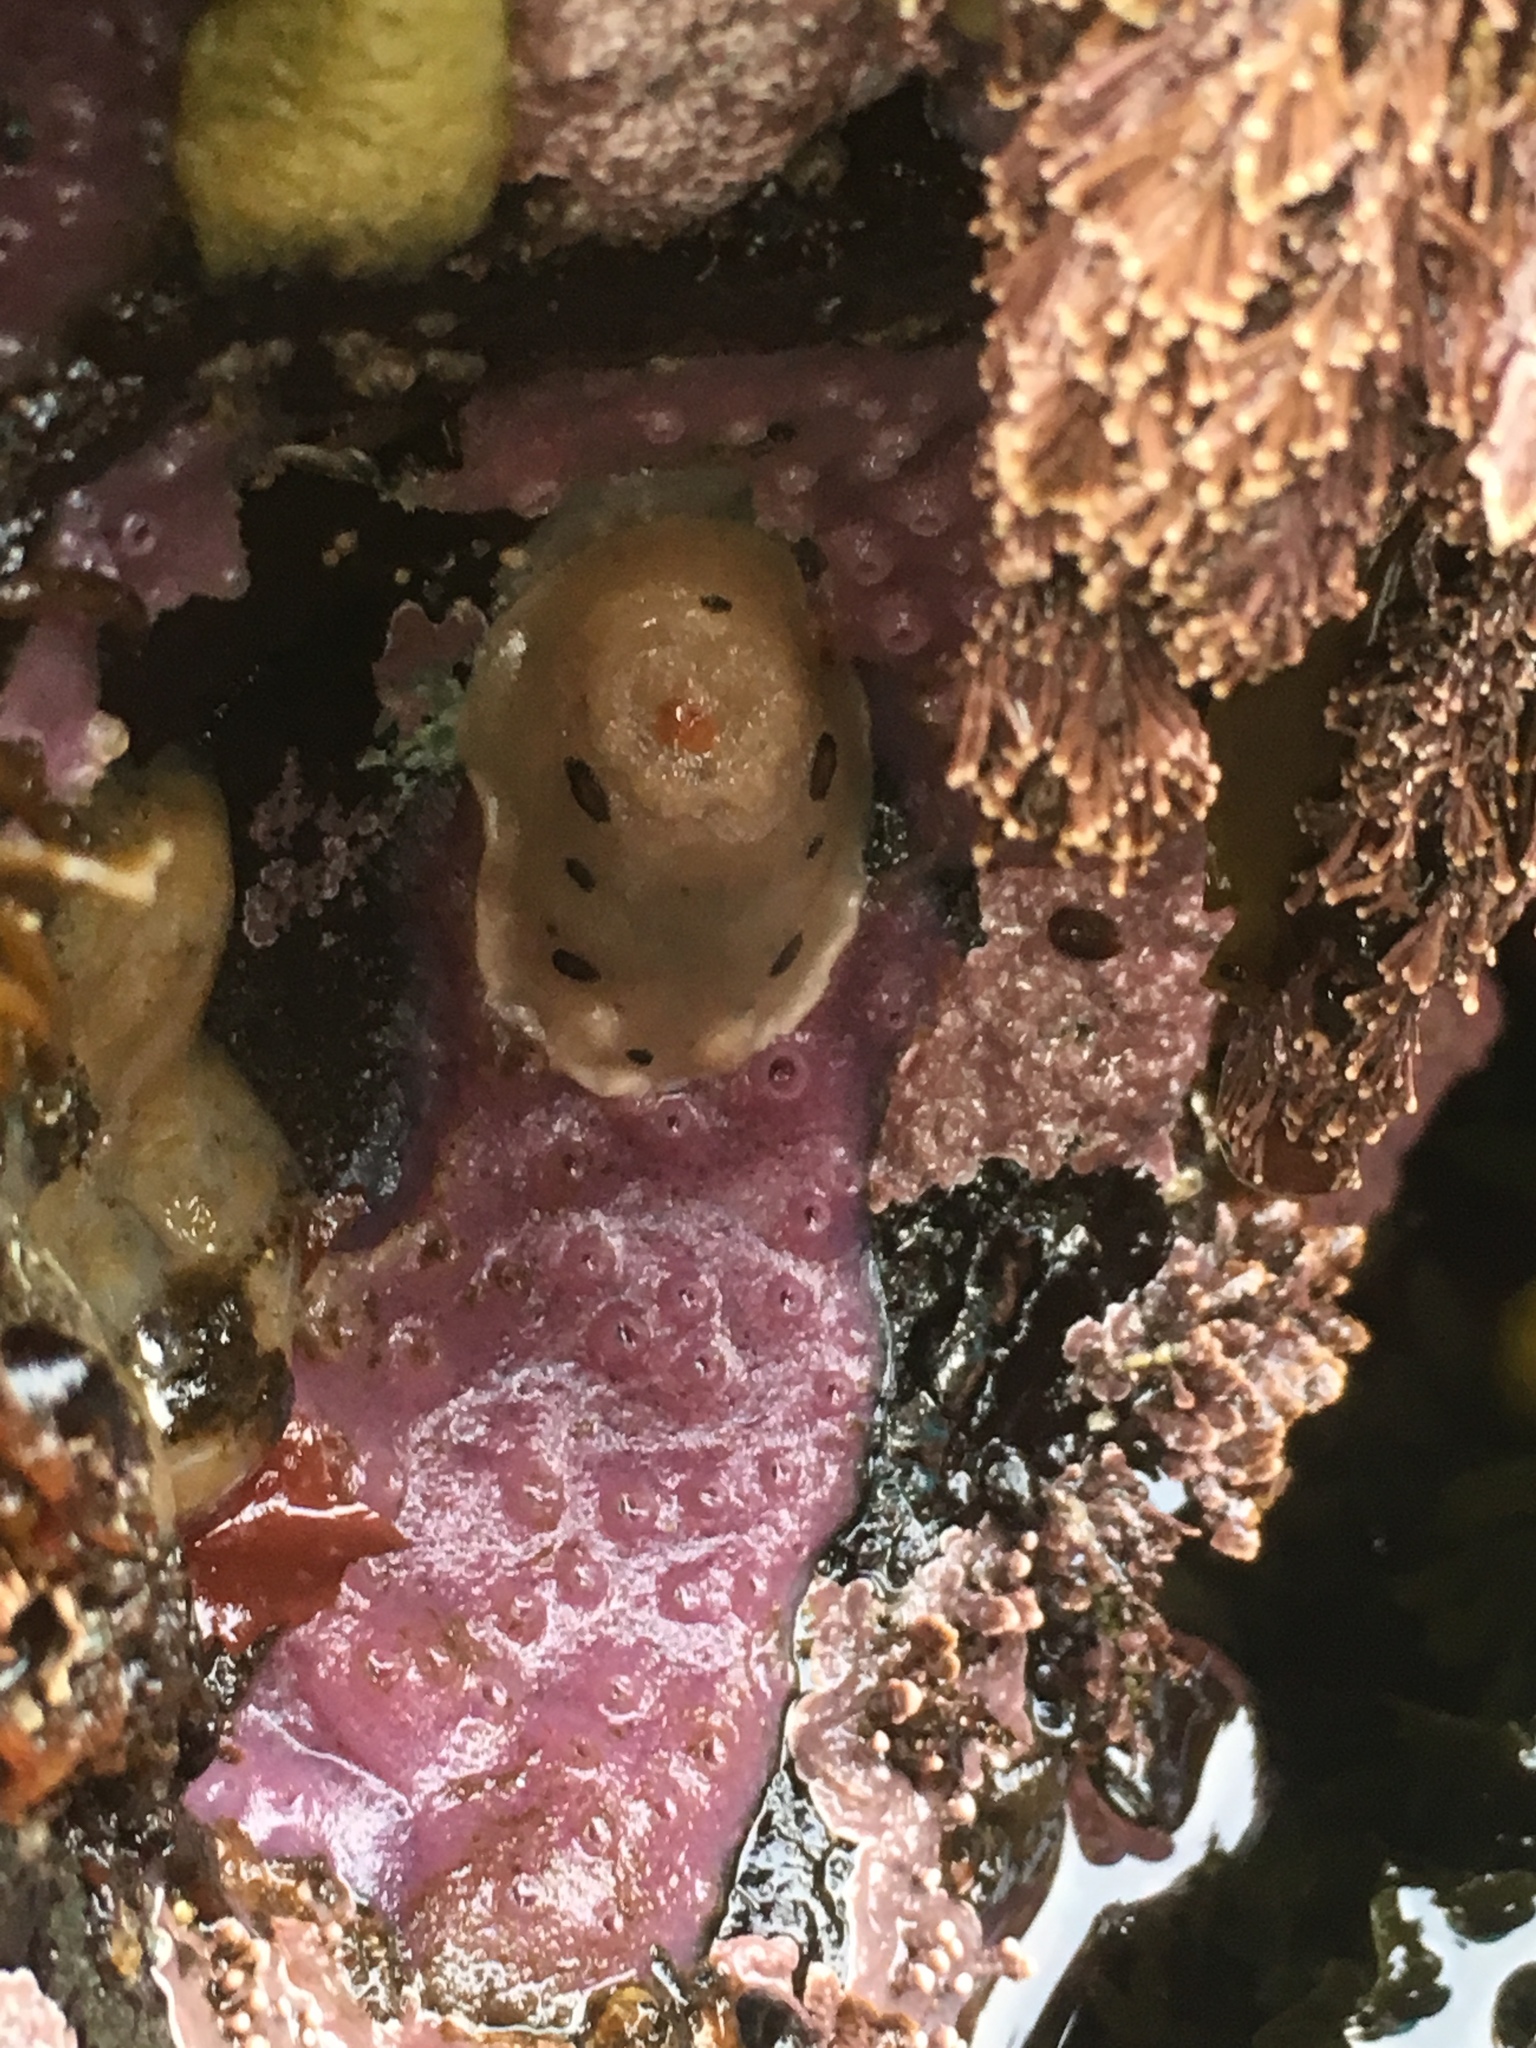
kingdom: Animalia
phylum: Mollusca
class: Gastropoda
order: Nudibranchia
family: Discodorididae
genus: Diaulula
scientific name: Diaulula sandiegensis
